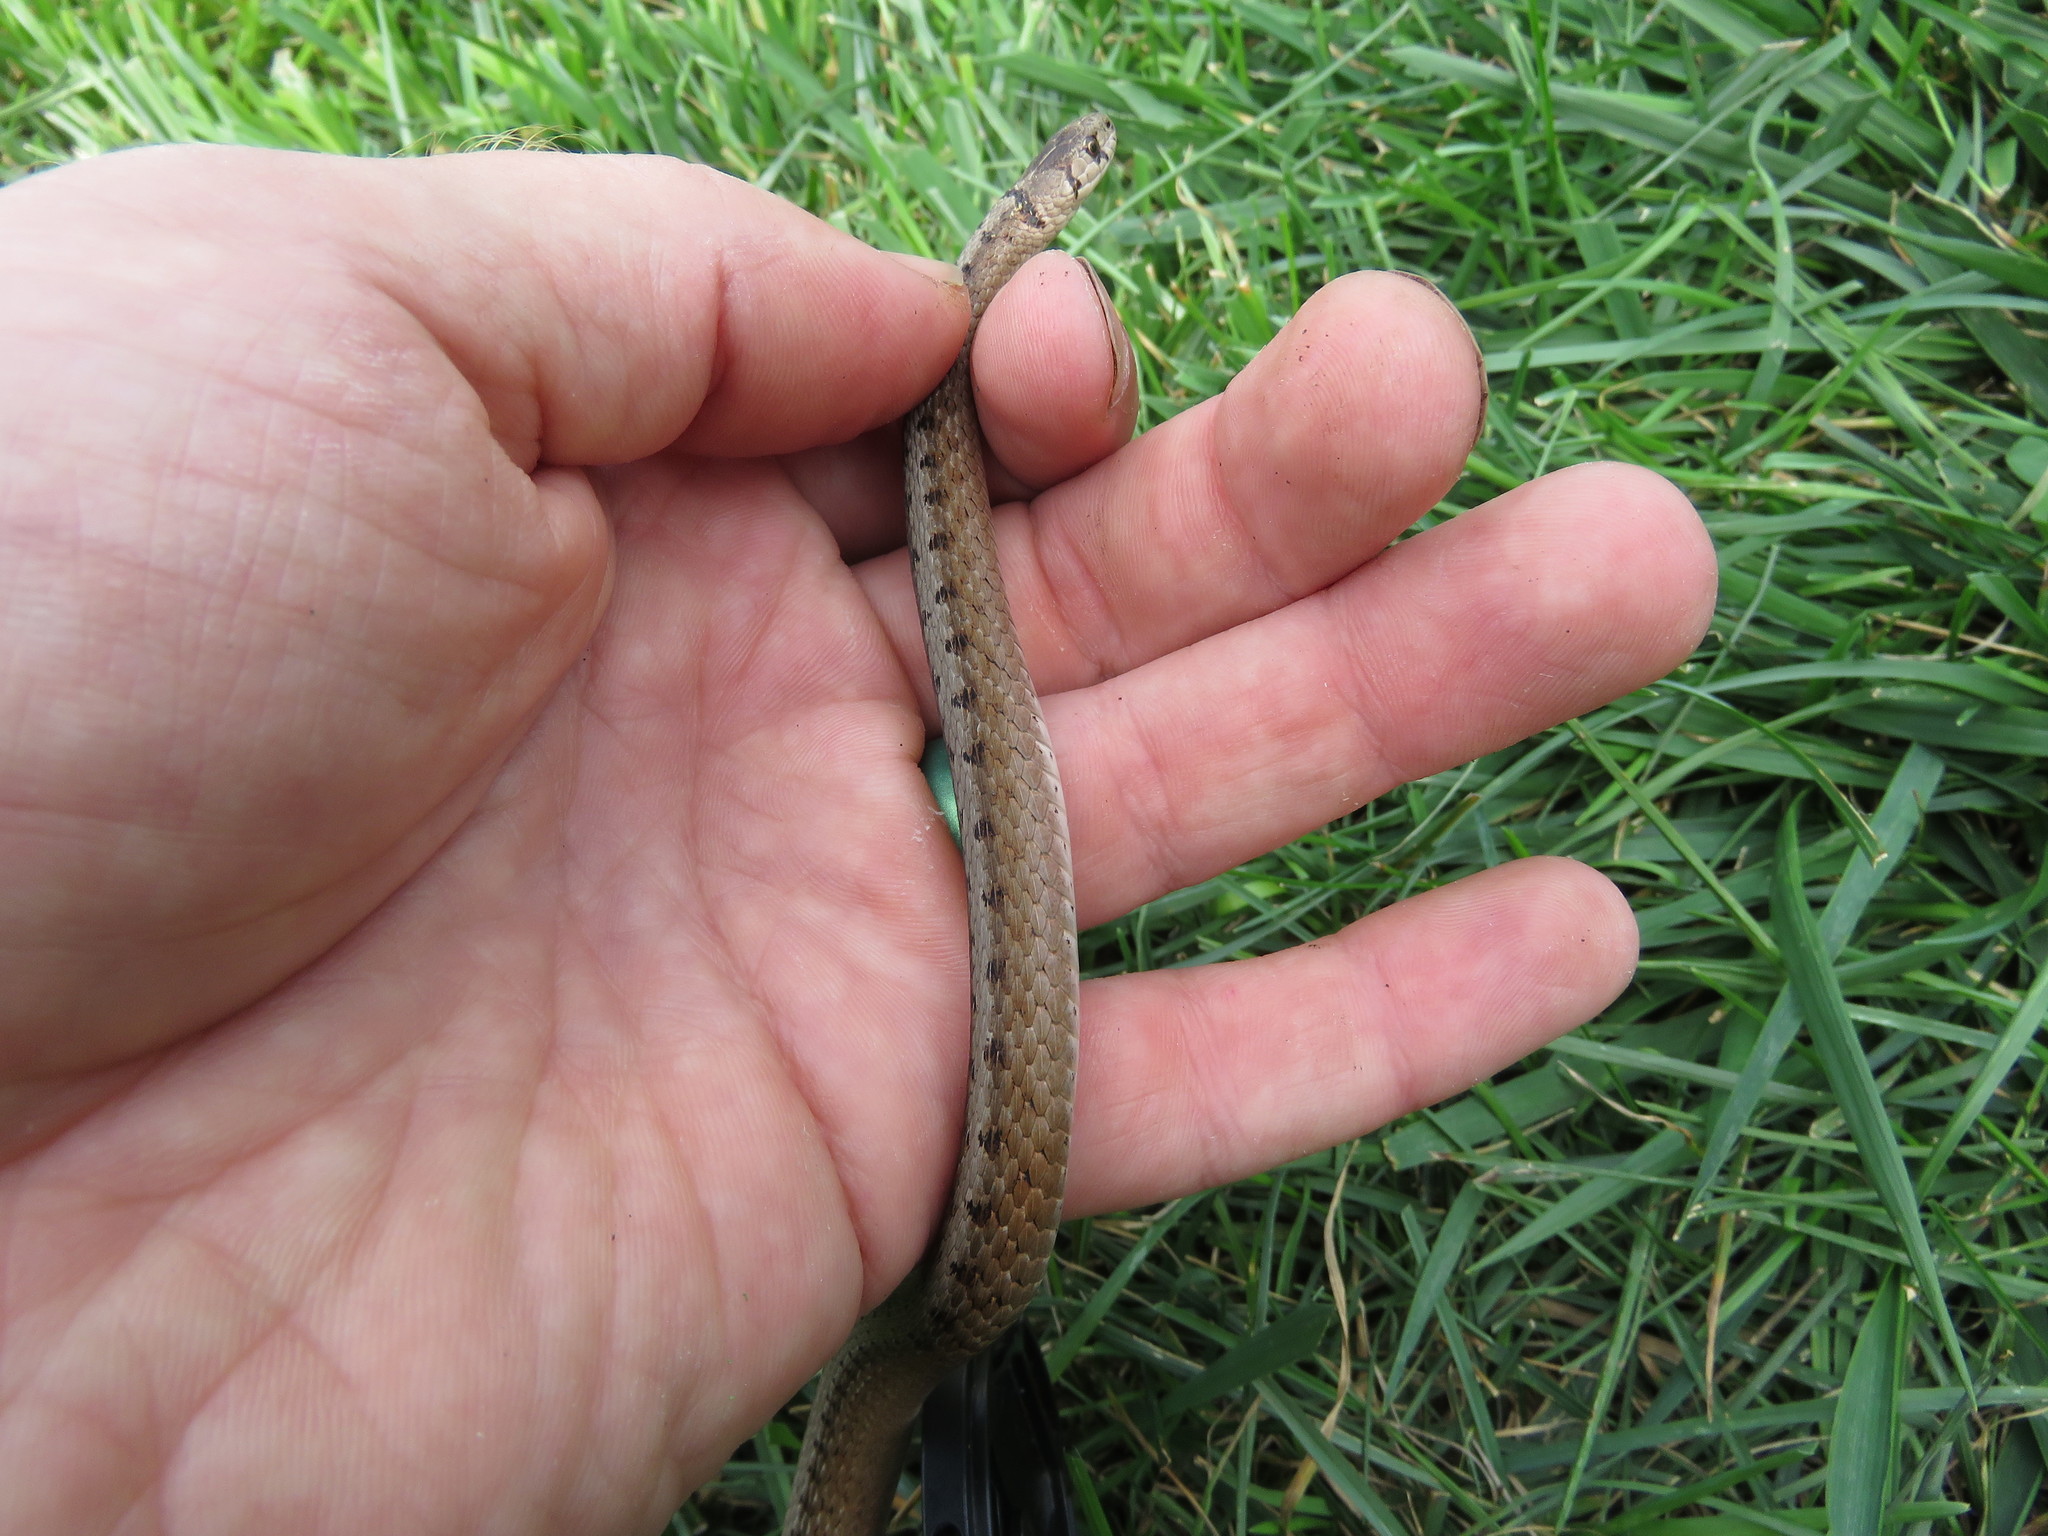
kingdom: Animalia
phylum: Chordata
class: Squamata
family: Colubridae
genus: Storeria
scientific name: Storeria dekayi
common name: (dekay’s) brown snake
